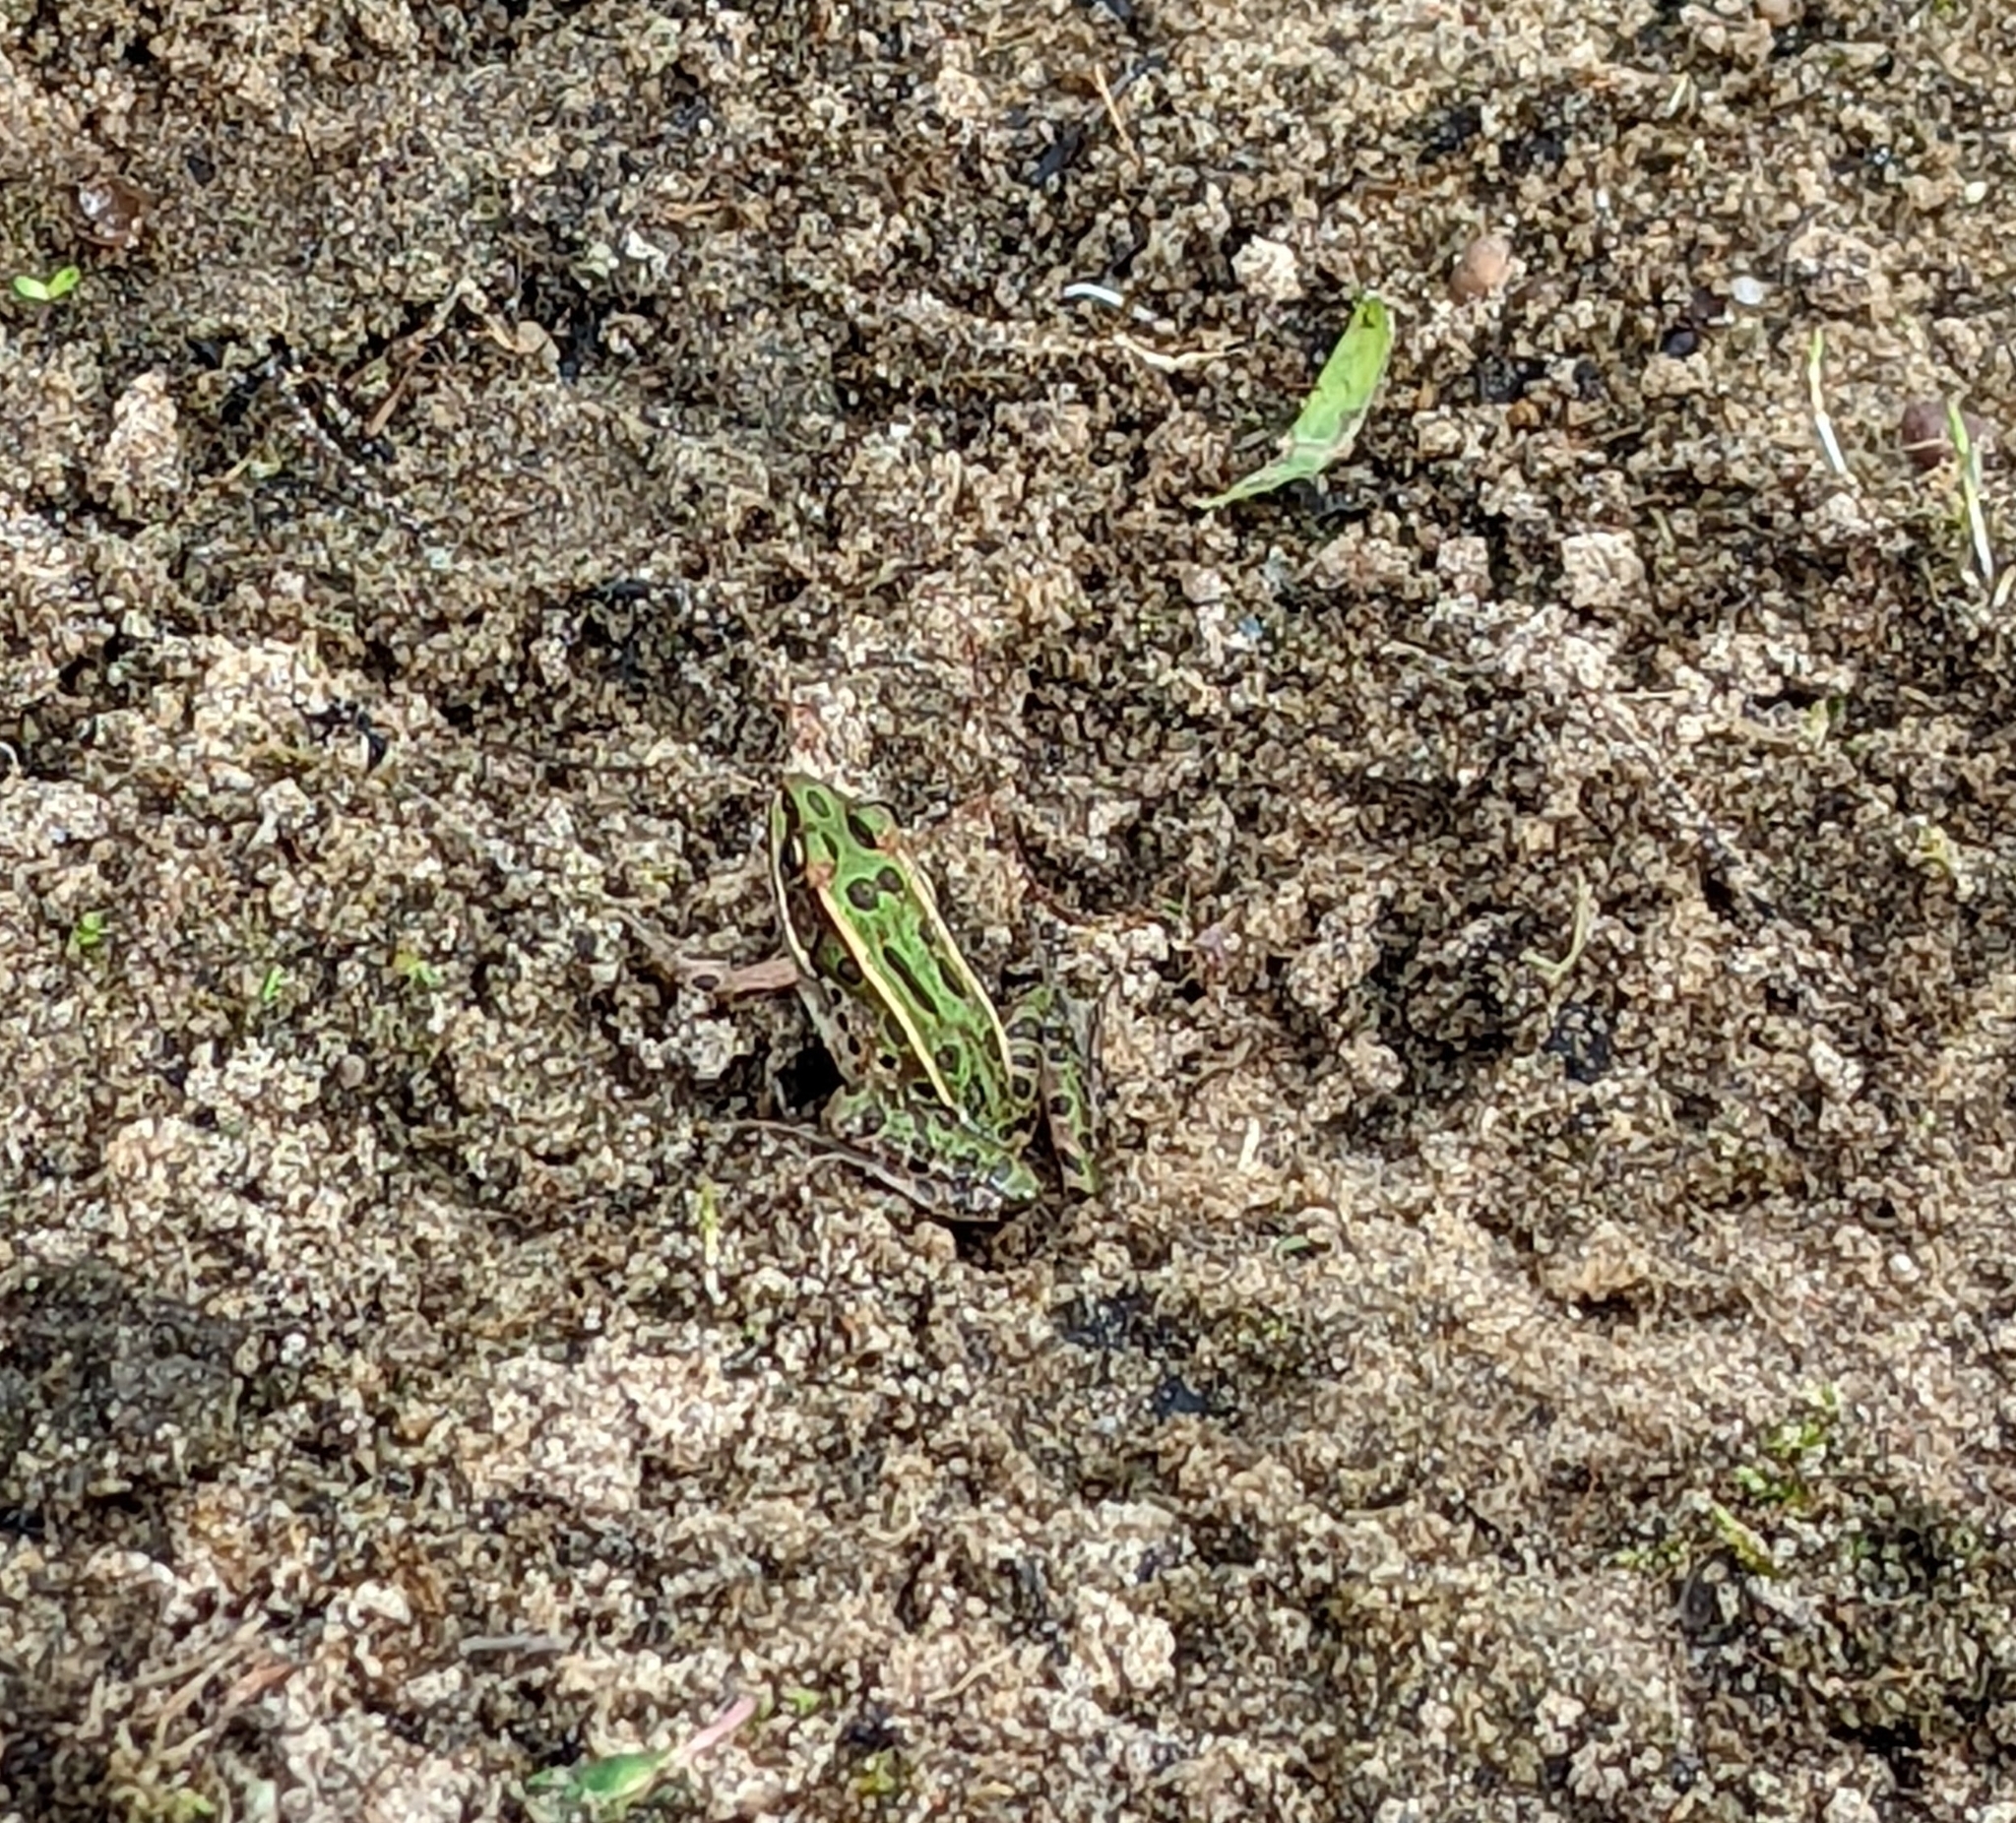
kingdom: Animalia
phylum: Chordata
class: Amphibia
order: Anura
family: Ranidae
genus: Lithobates
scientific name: Lithobates pipiens
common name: Northern leopard frog
